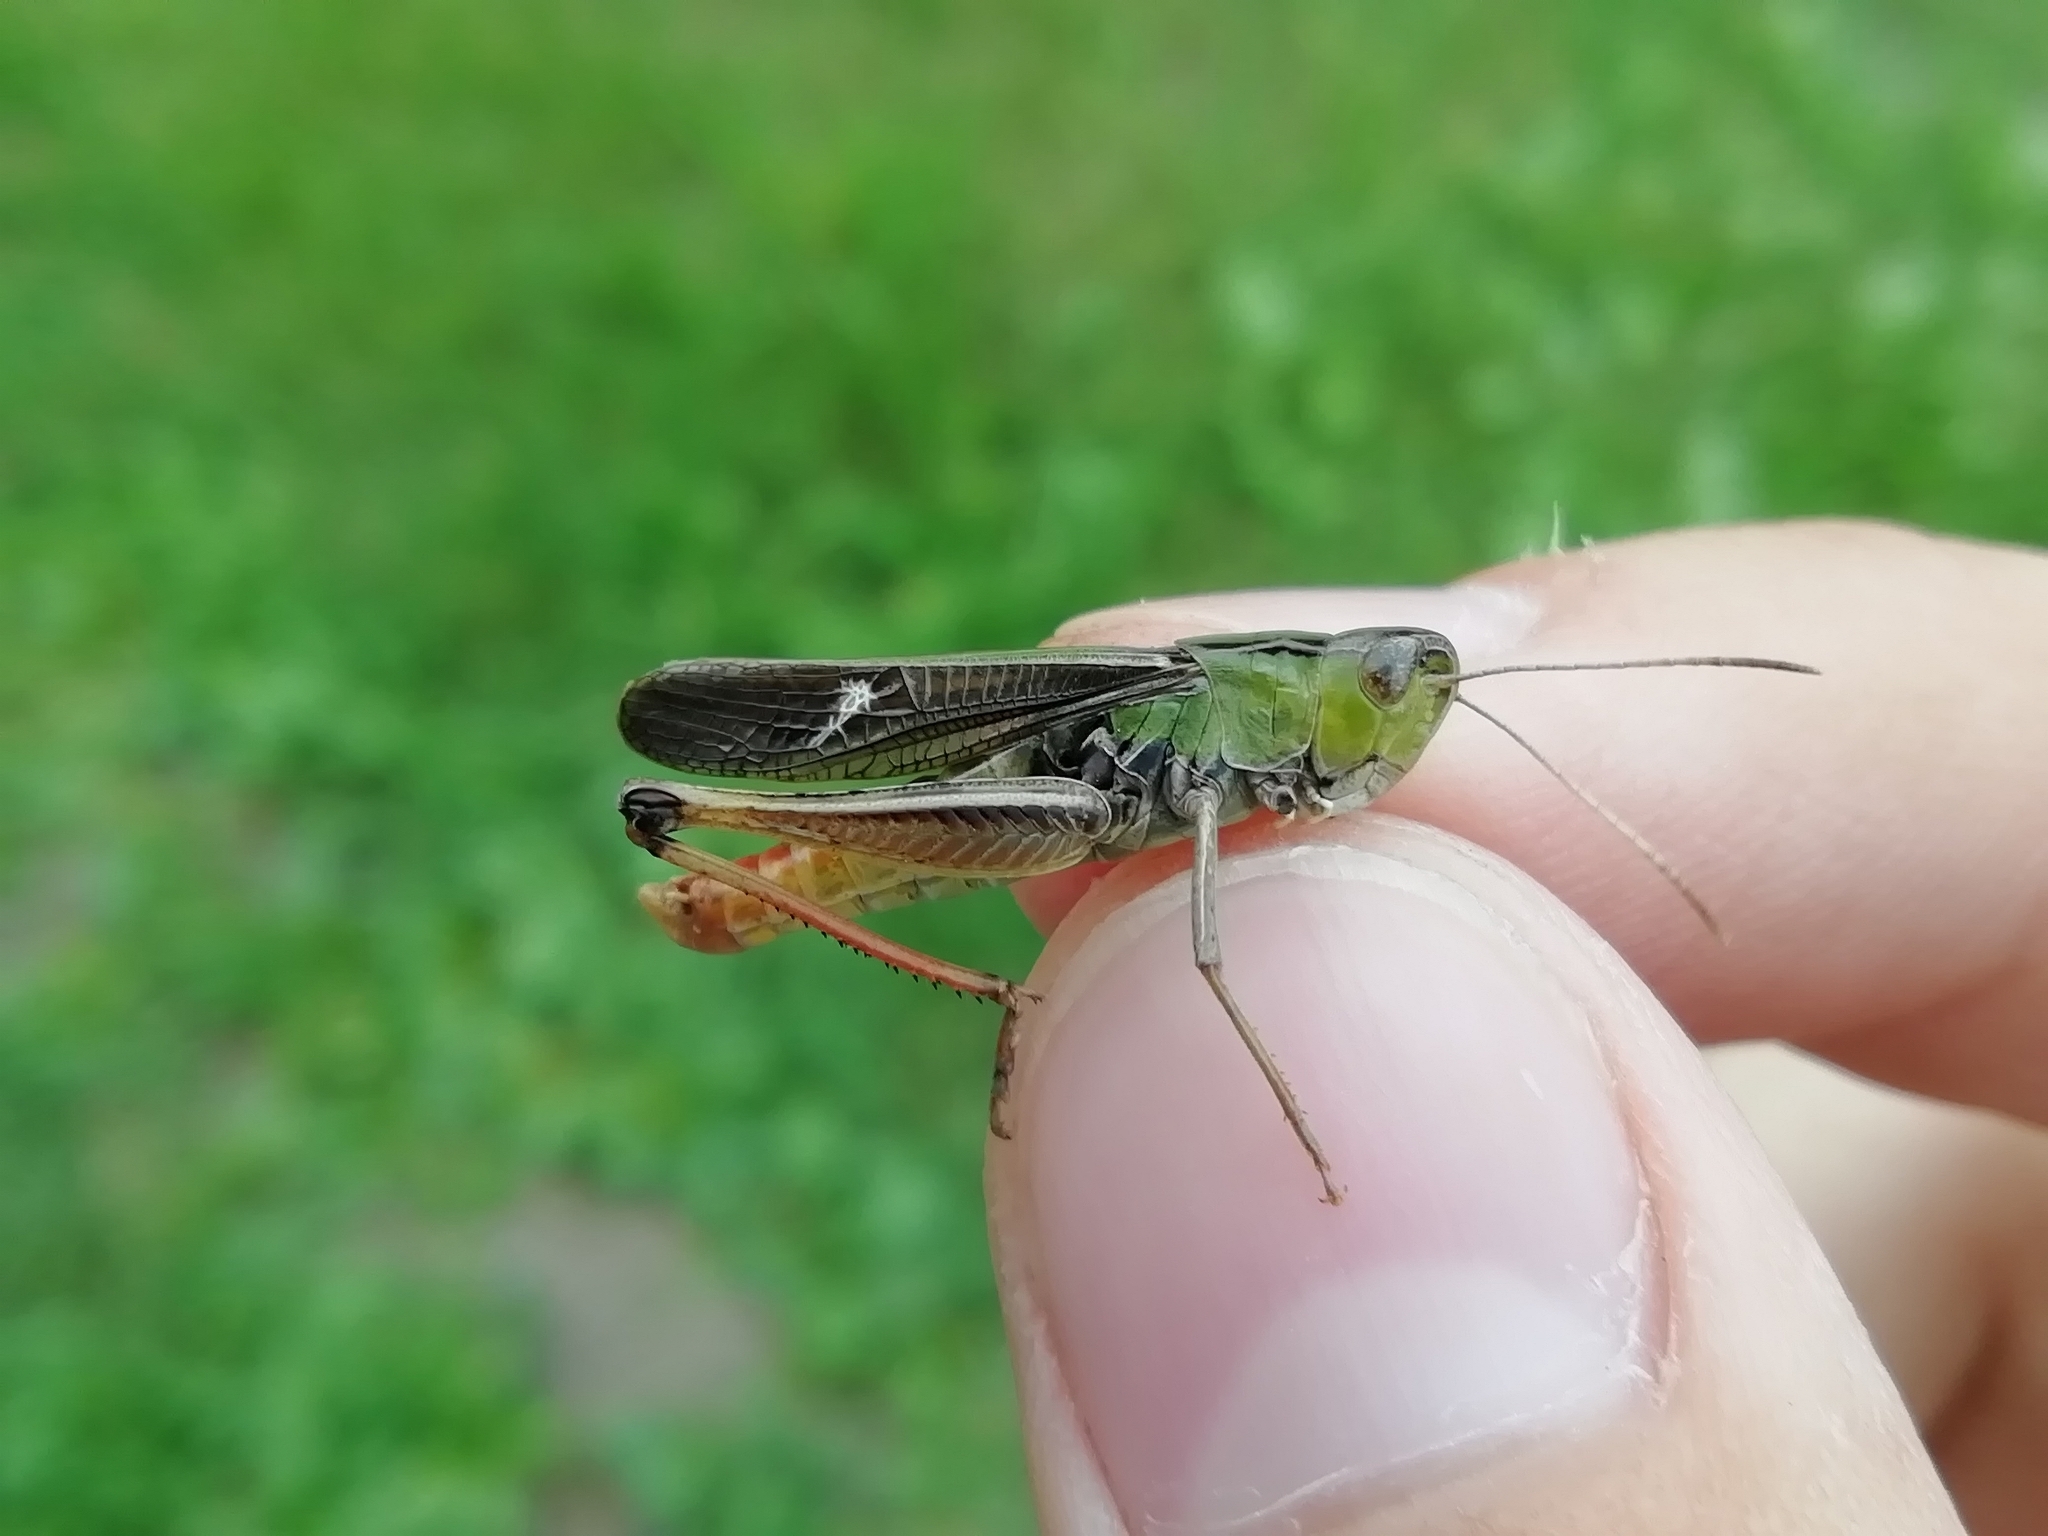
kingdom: Animalia
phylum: Arthropoda
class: Insecta
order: Orthoptera
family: Acrididae
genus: Stenobothrus
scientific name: Stenobothrus lineatus
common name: Stripe-winged grasshopper
